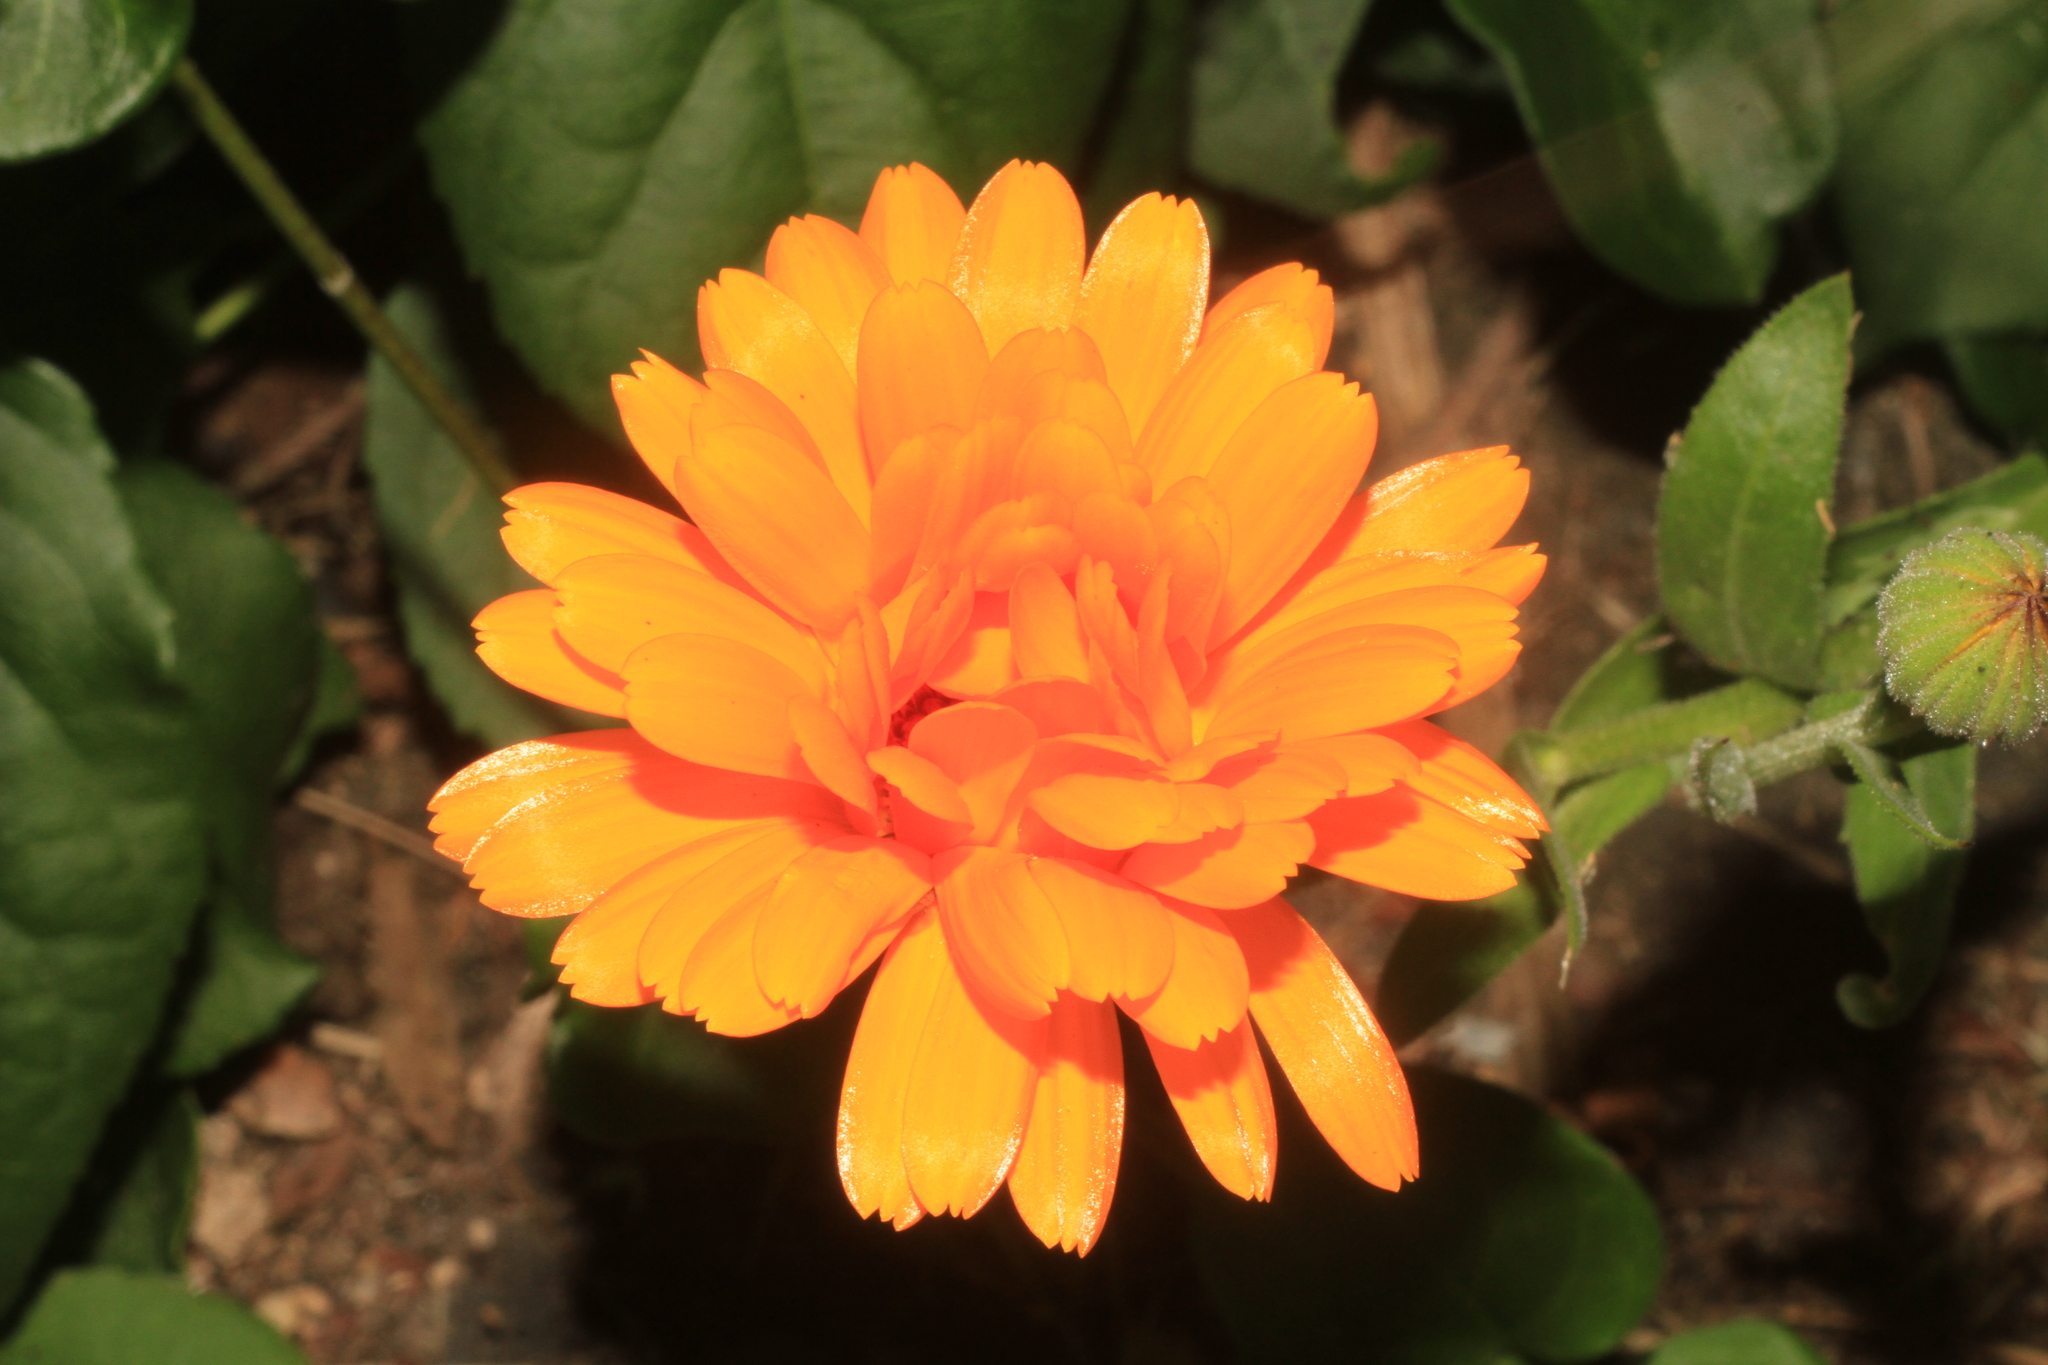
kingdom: Plantae
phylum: Tracheophyta
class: Magnoliopsida
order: Asterales
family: Asteraceae
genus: Calendula
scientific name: Calendula officinalis
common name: Pot marigold
